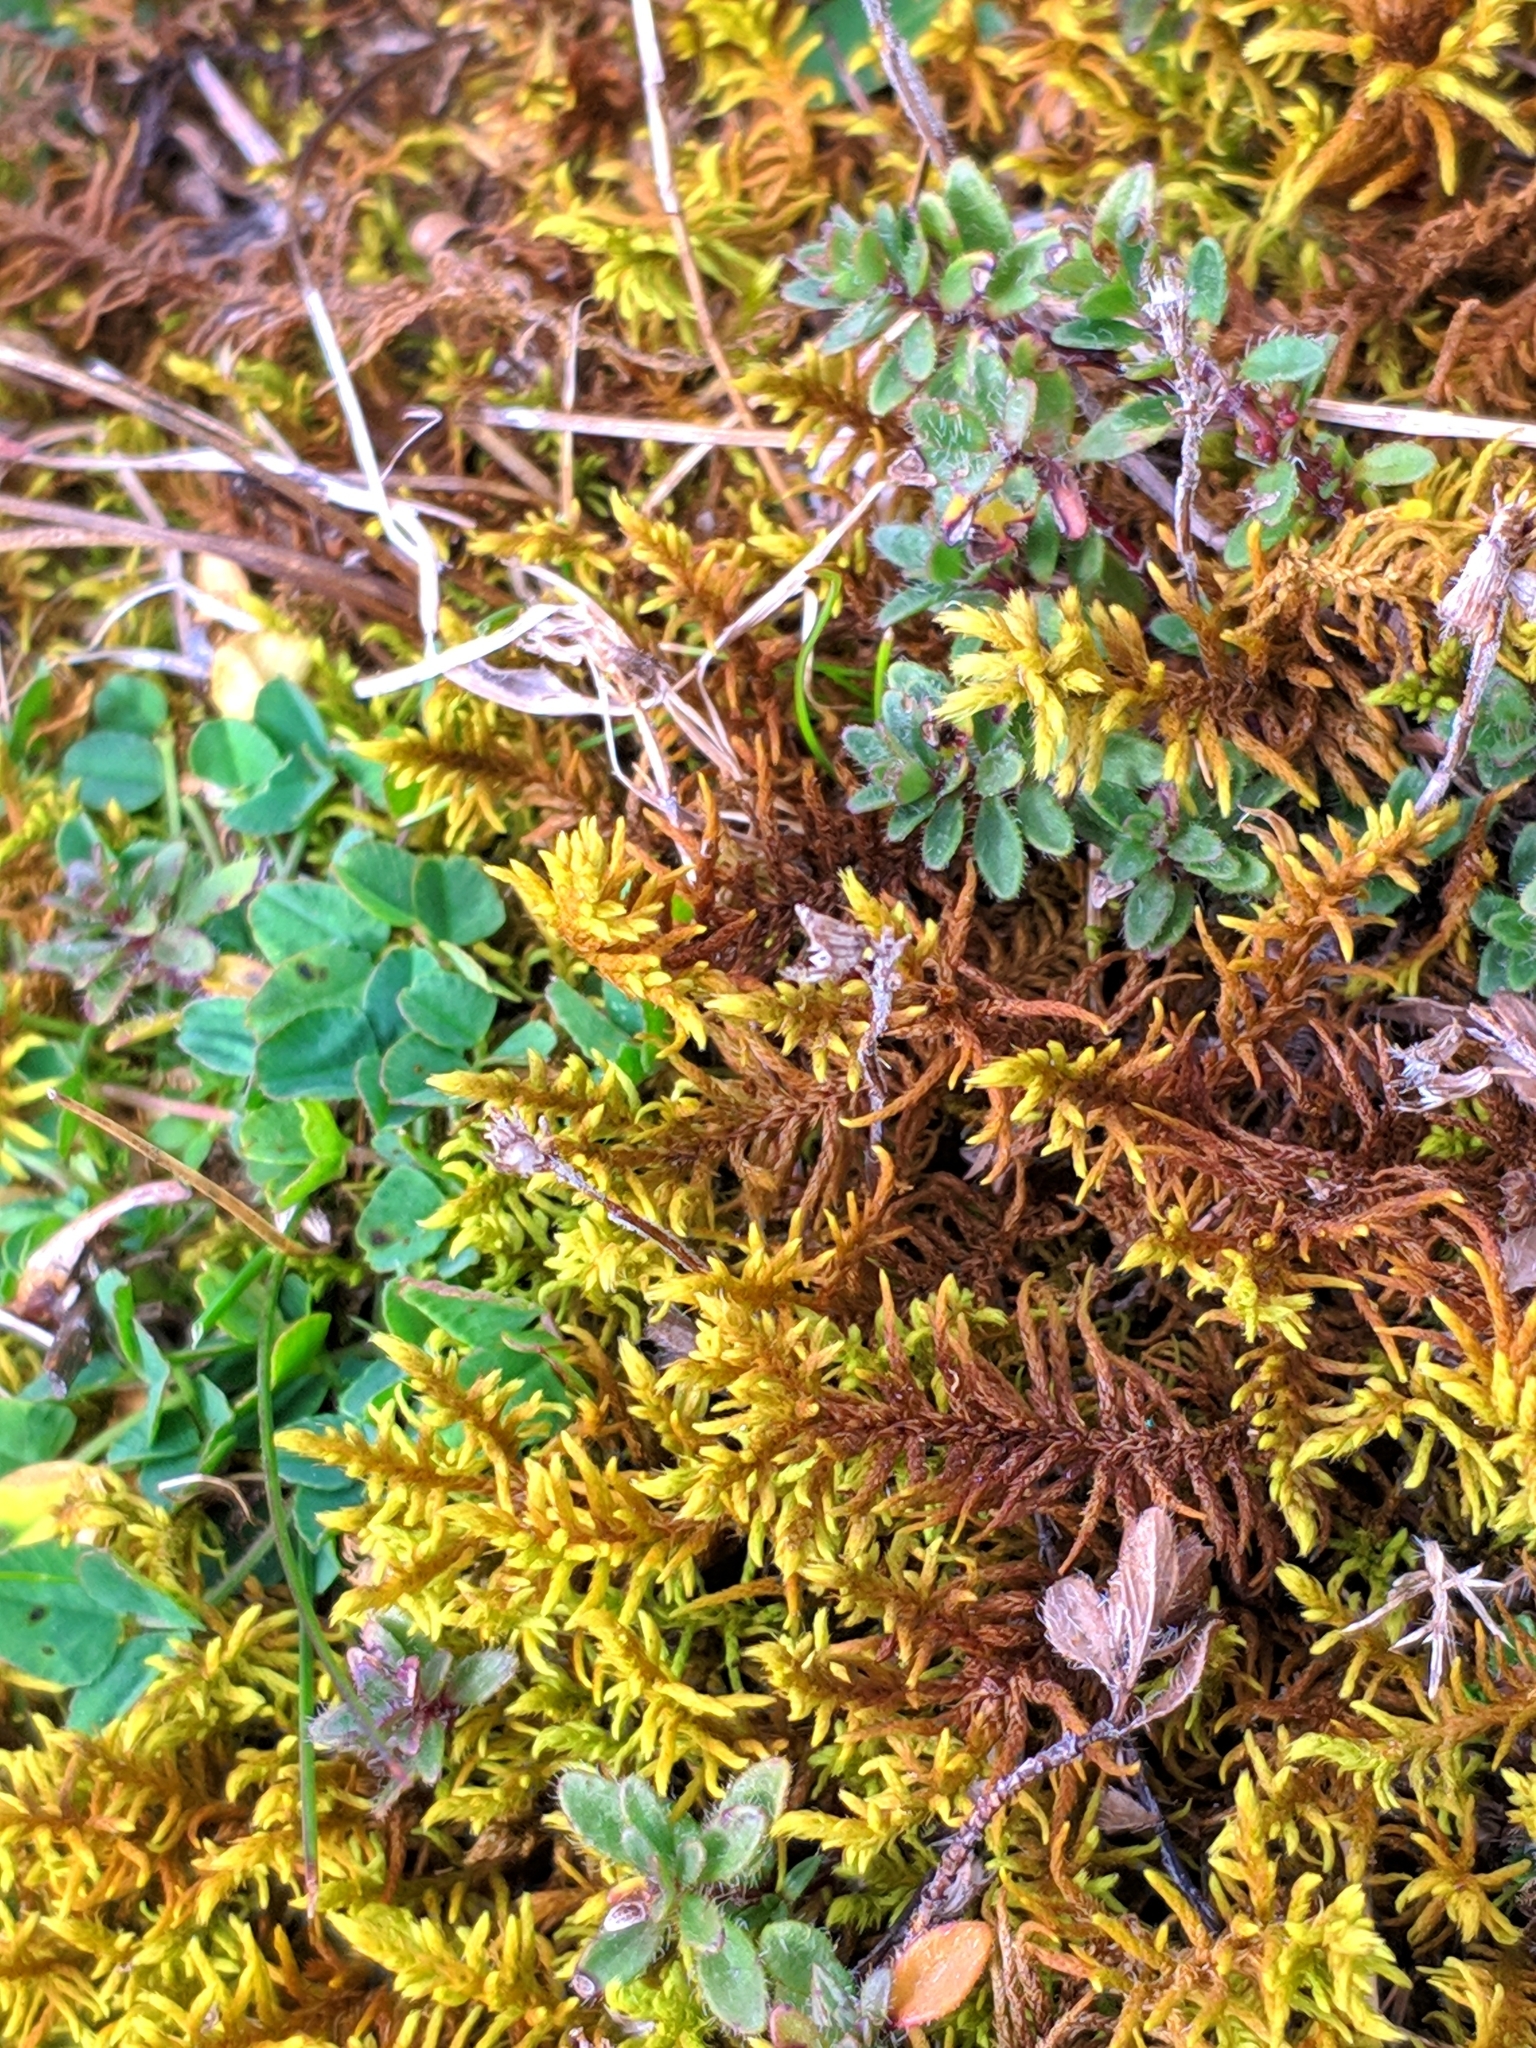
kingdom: Plantae
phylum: Bryophyta
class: Bryopsida
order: Hypnales
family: Thuidiaceae
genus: Abietinella
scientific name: Abietinella abietina
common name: Wiry fern moss
